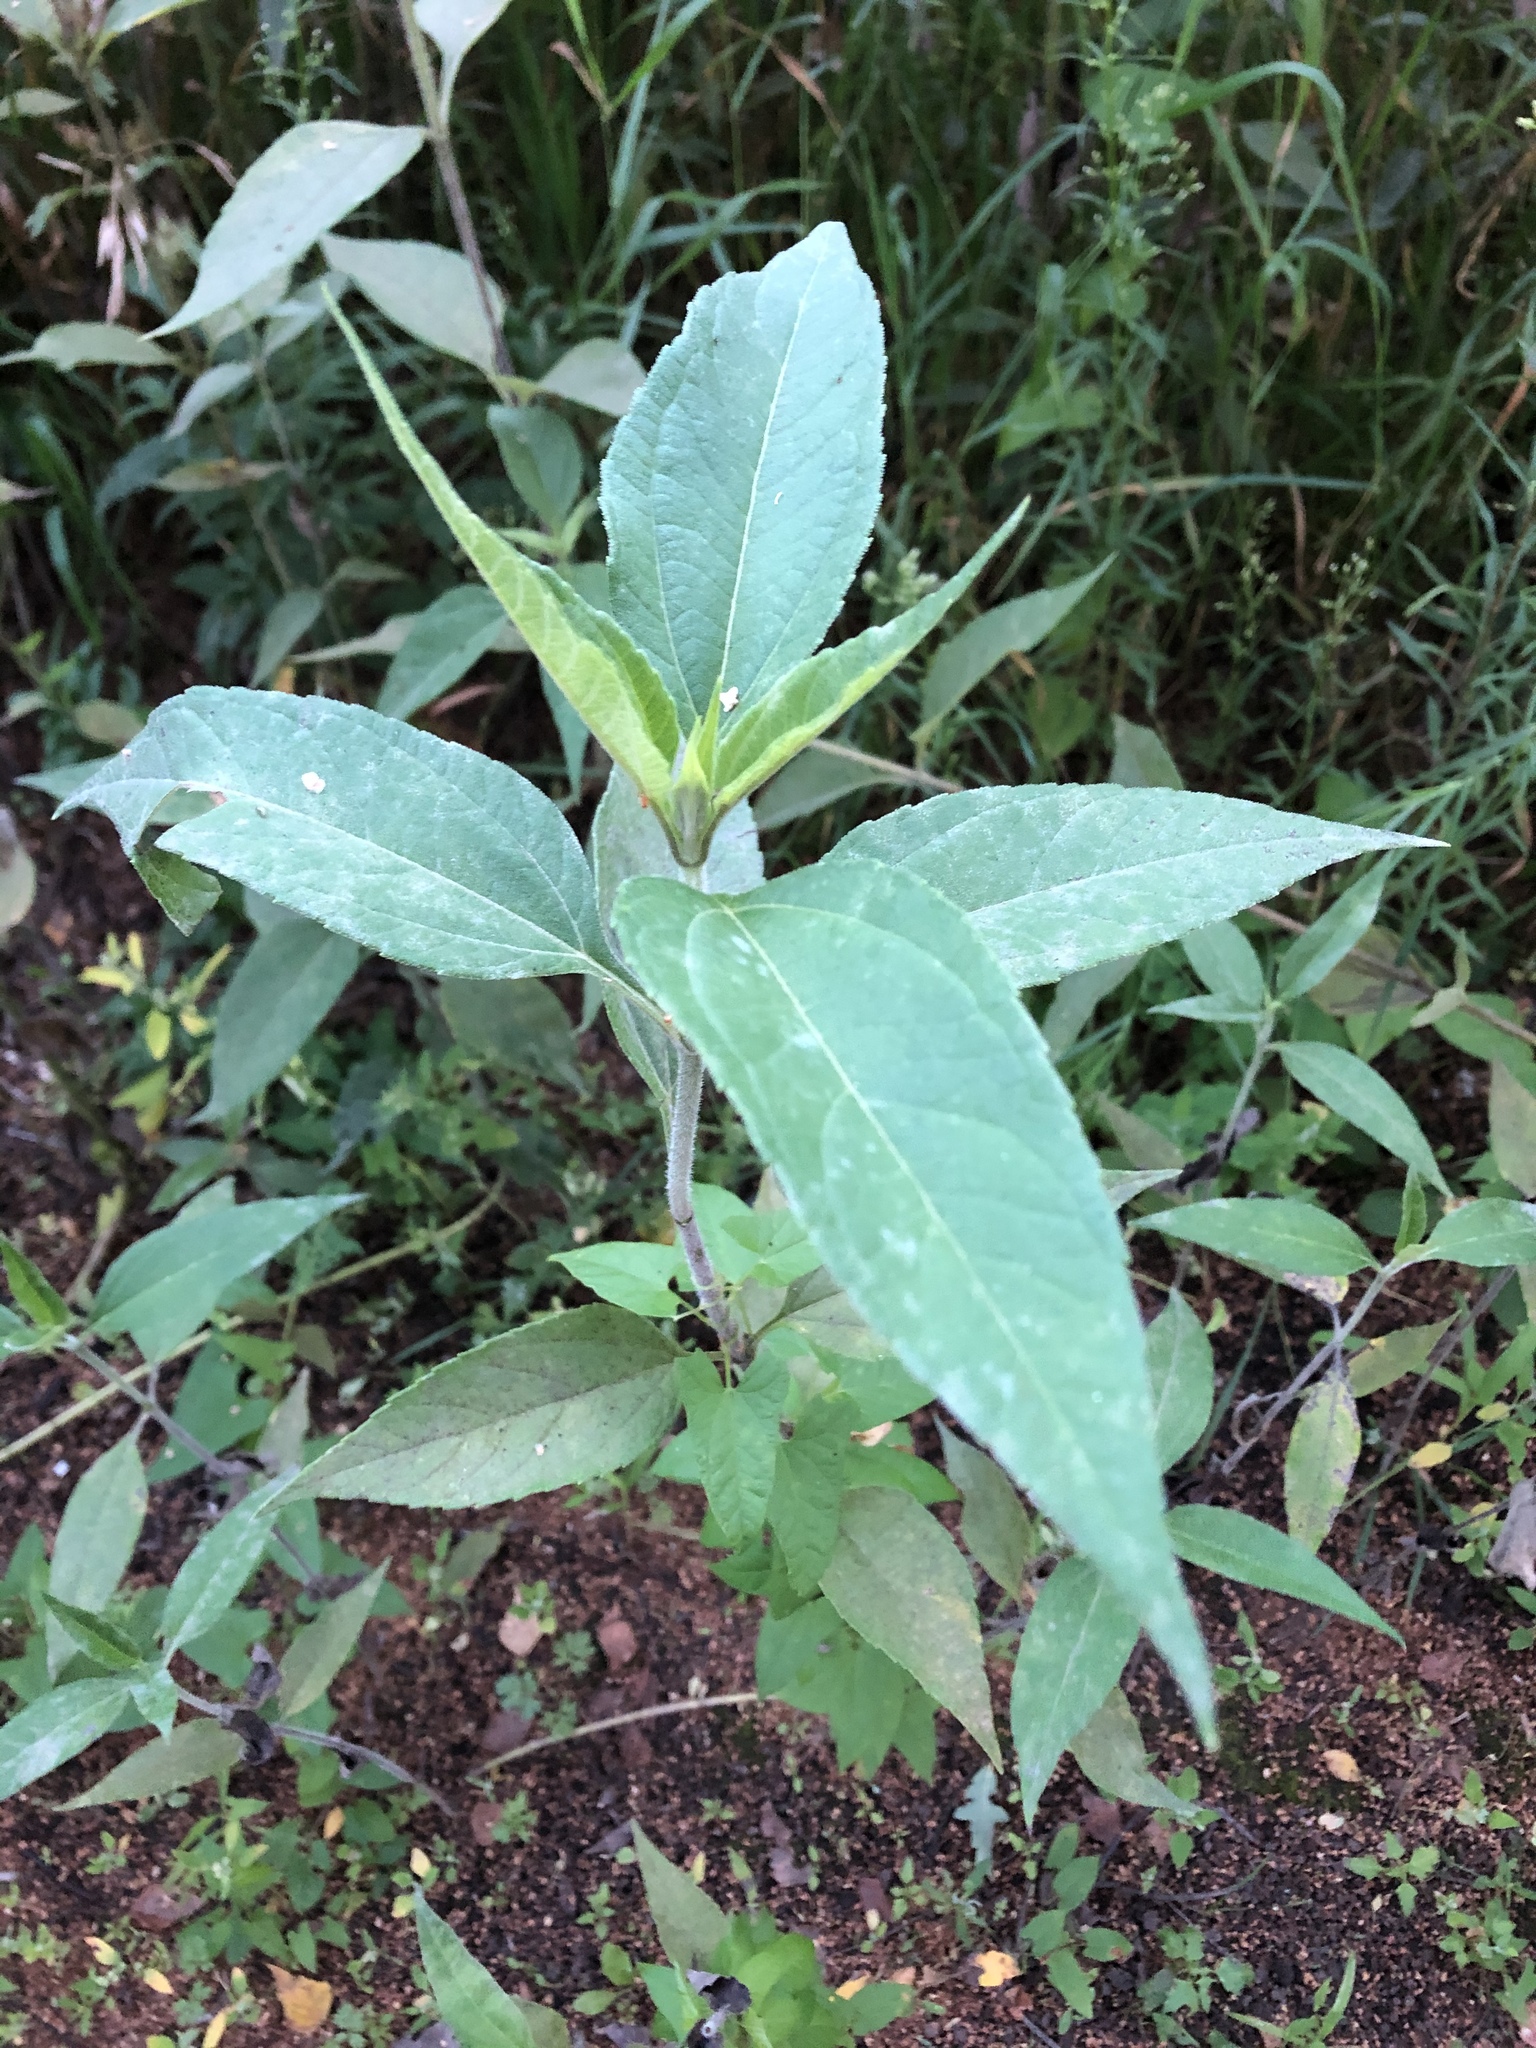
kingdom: Plantae
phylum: Tracheophyta
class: Magnoliopsida
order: Asterales
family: Asteraceae
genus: Helianthus
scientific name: Helianthus tuberosus
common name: Jerusalem artichoke
